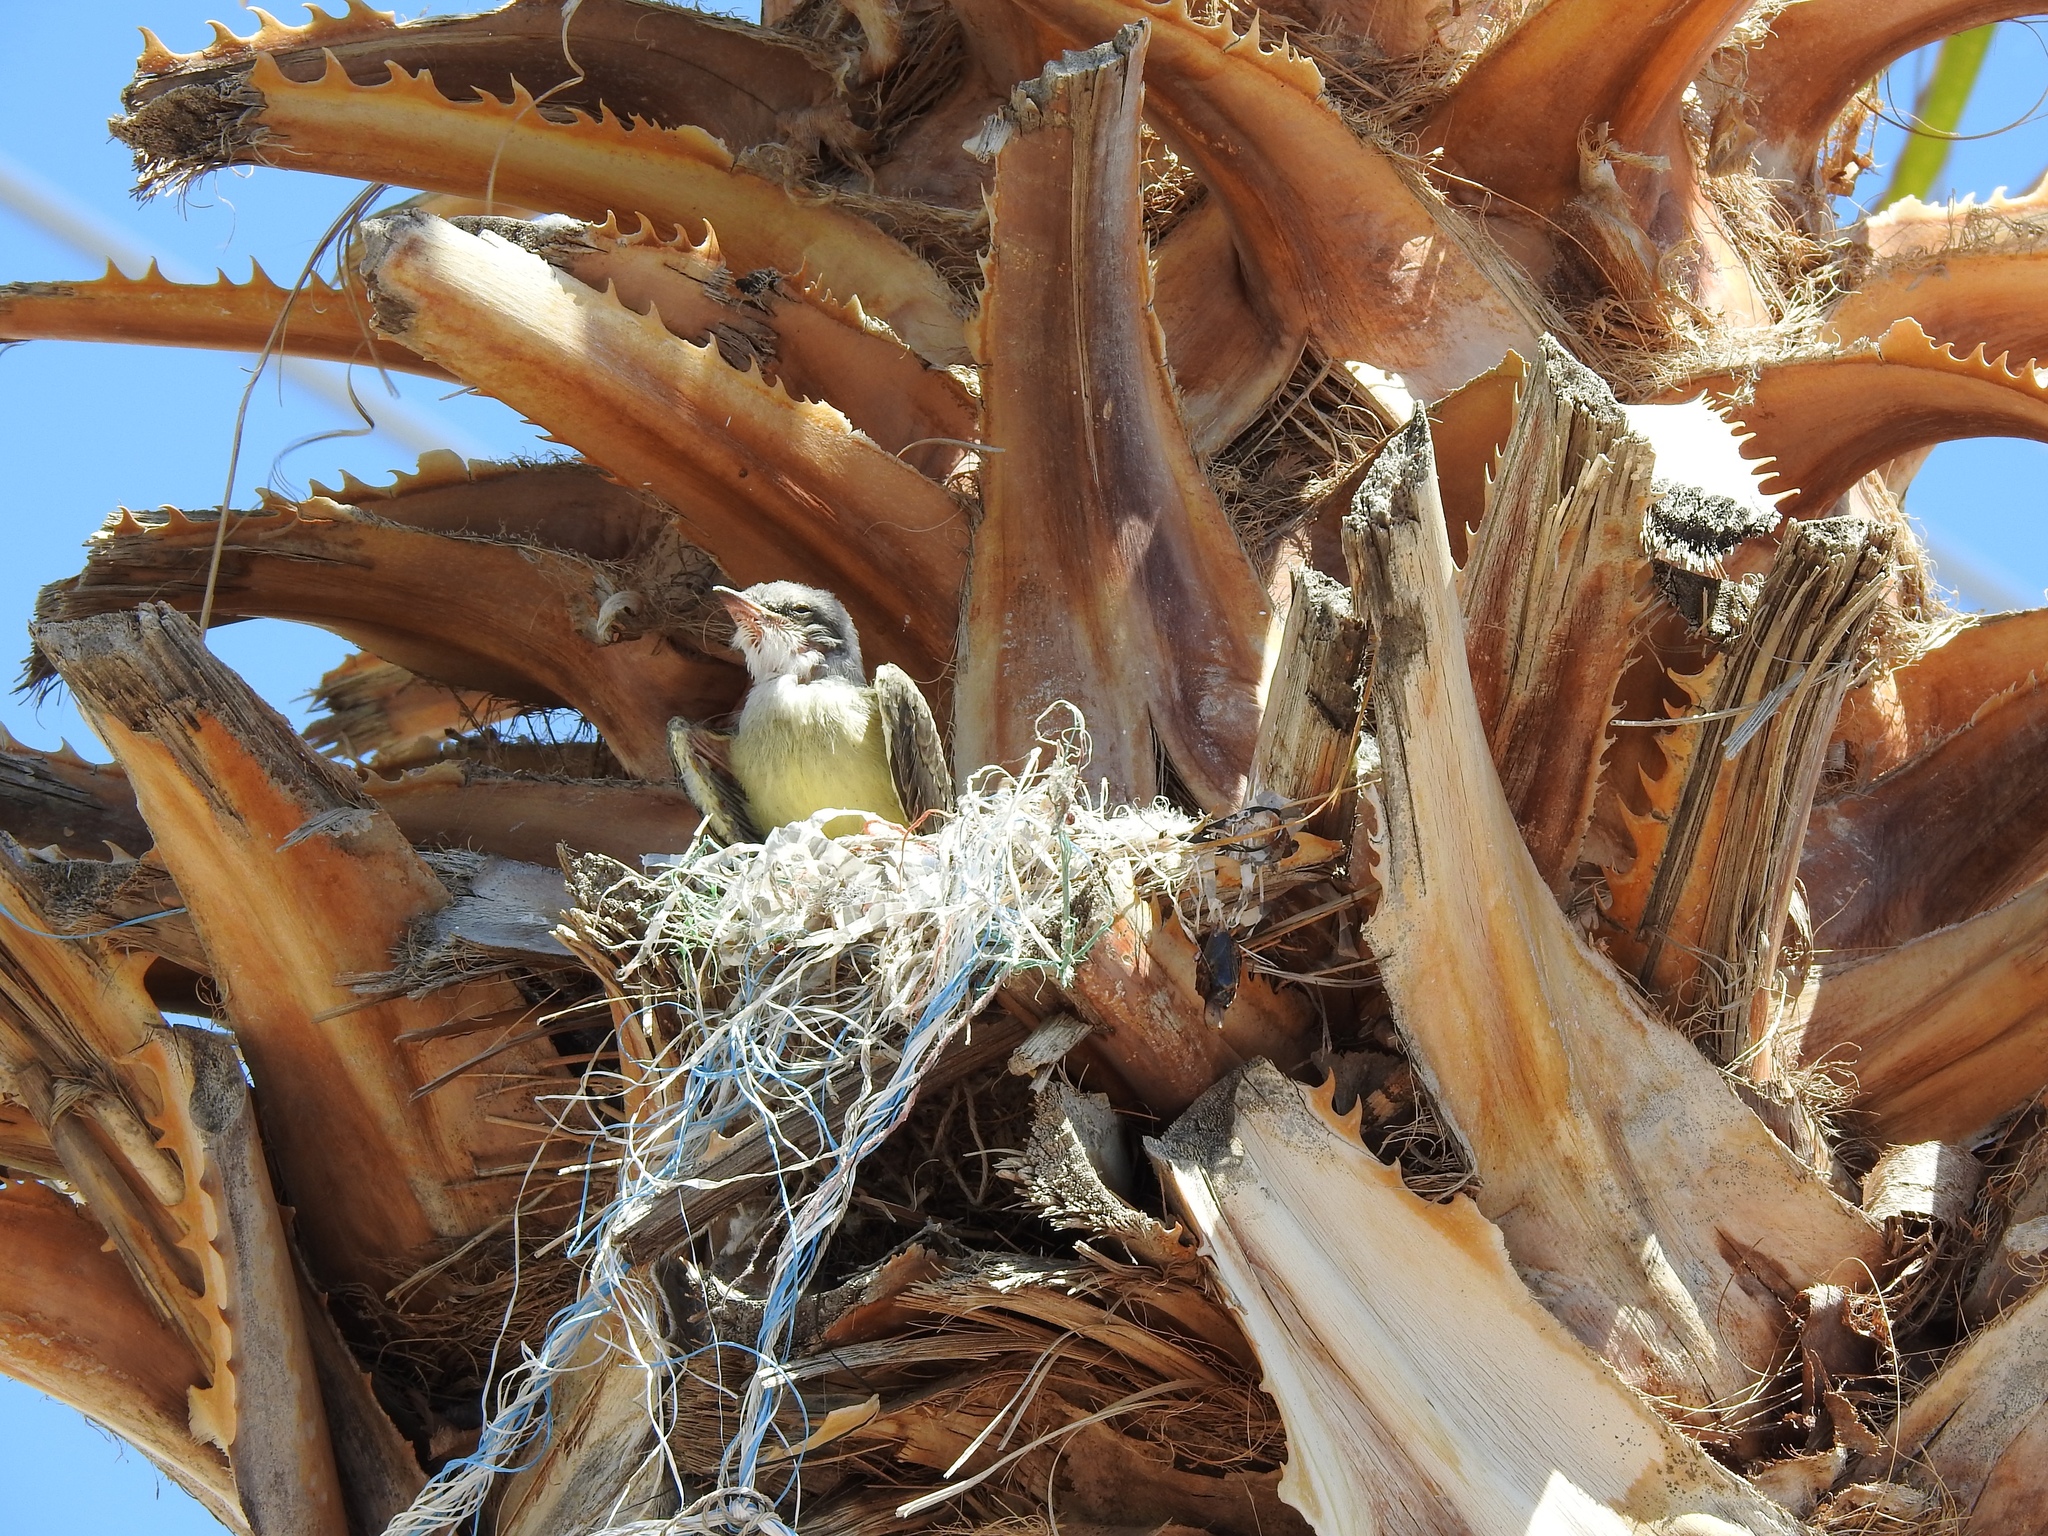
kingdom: Animalia
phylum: Chordata
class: Aves
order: Passeriformes
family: Tyrannidae
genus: Tyrannus
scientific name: Tyrannus verticalis
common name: Western kingbird
